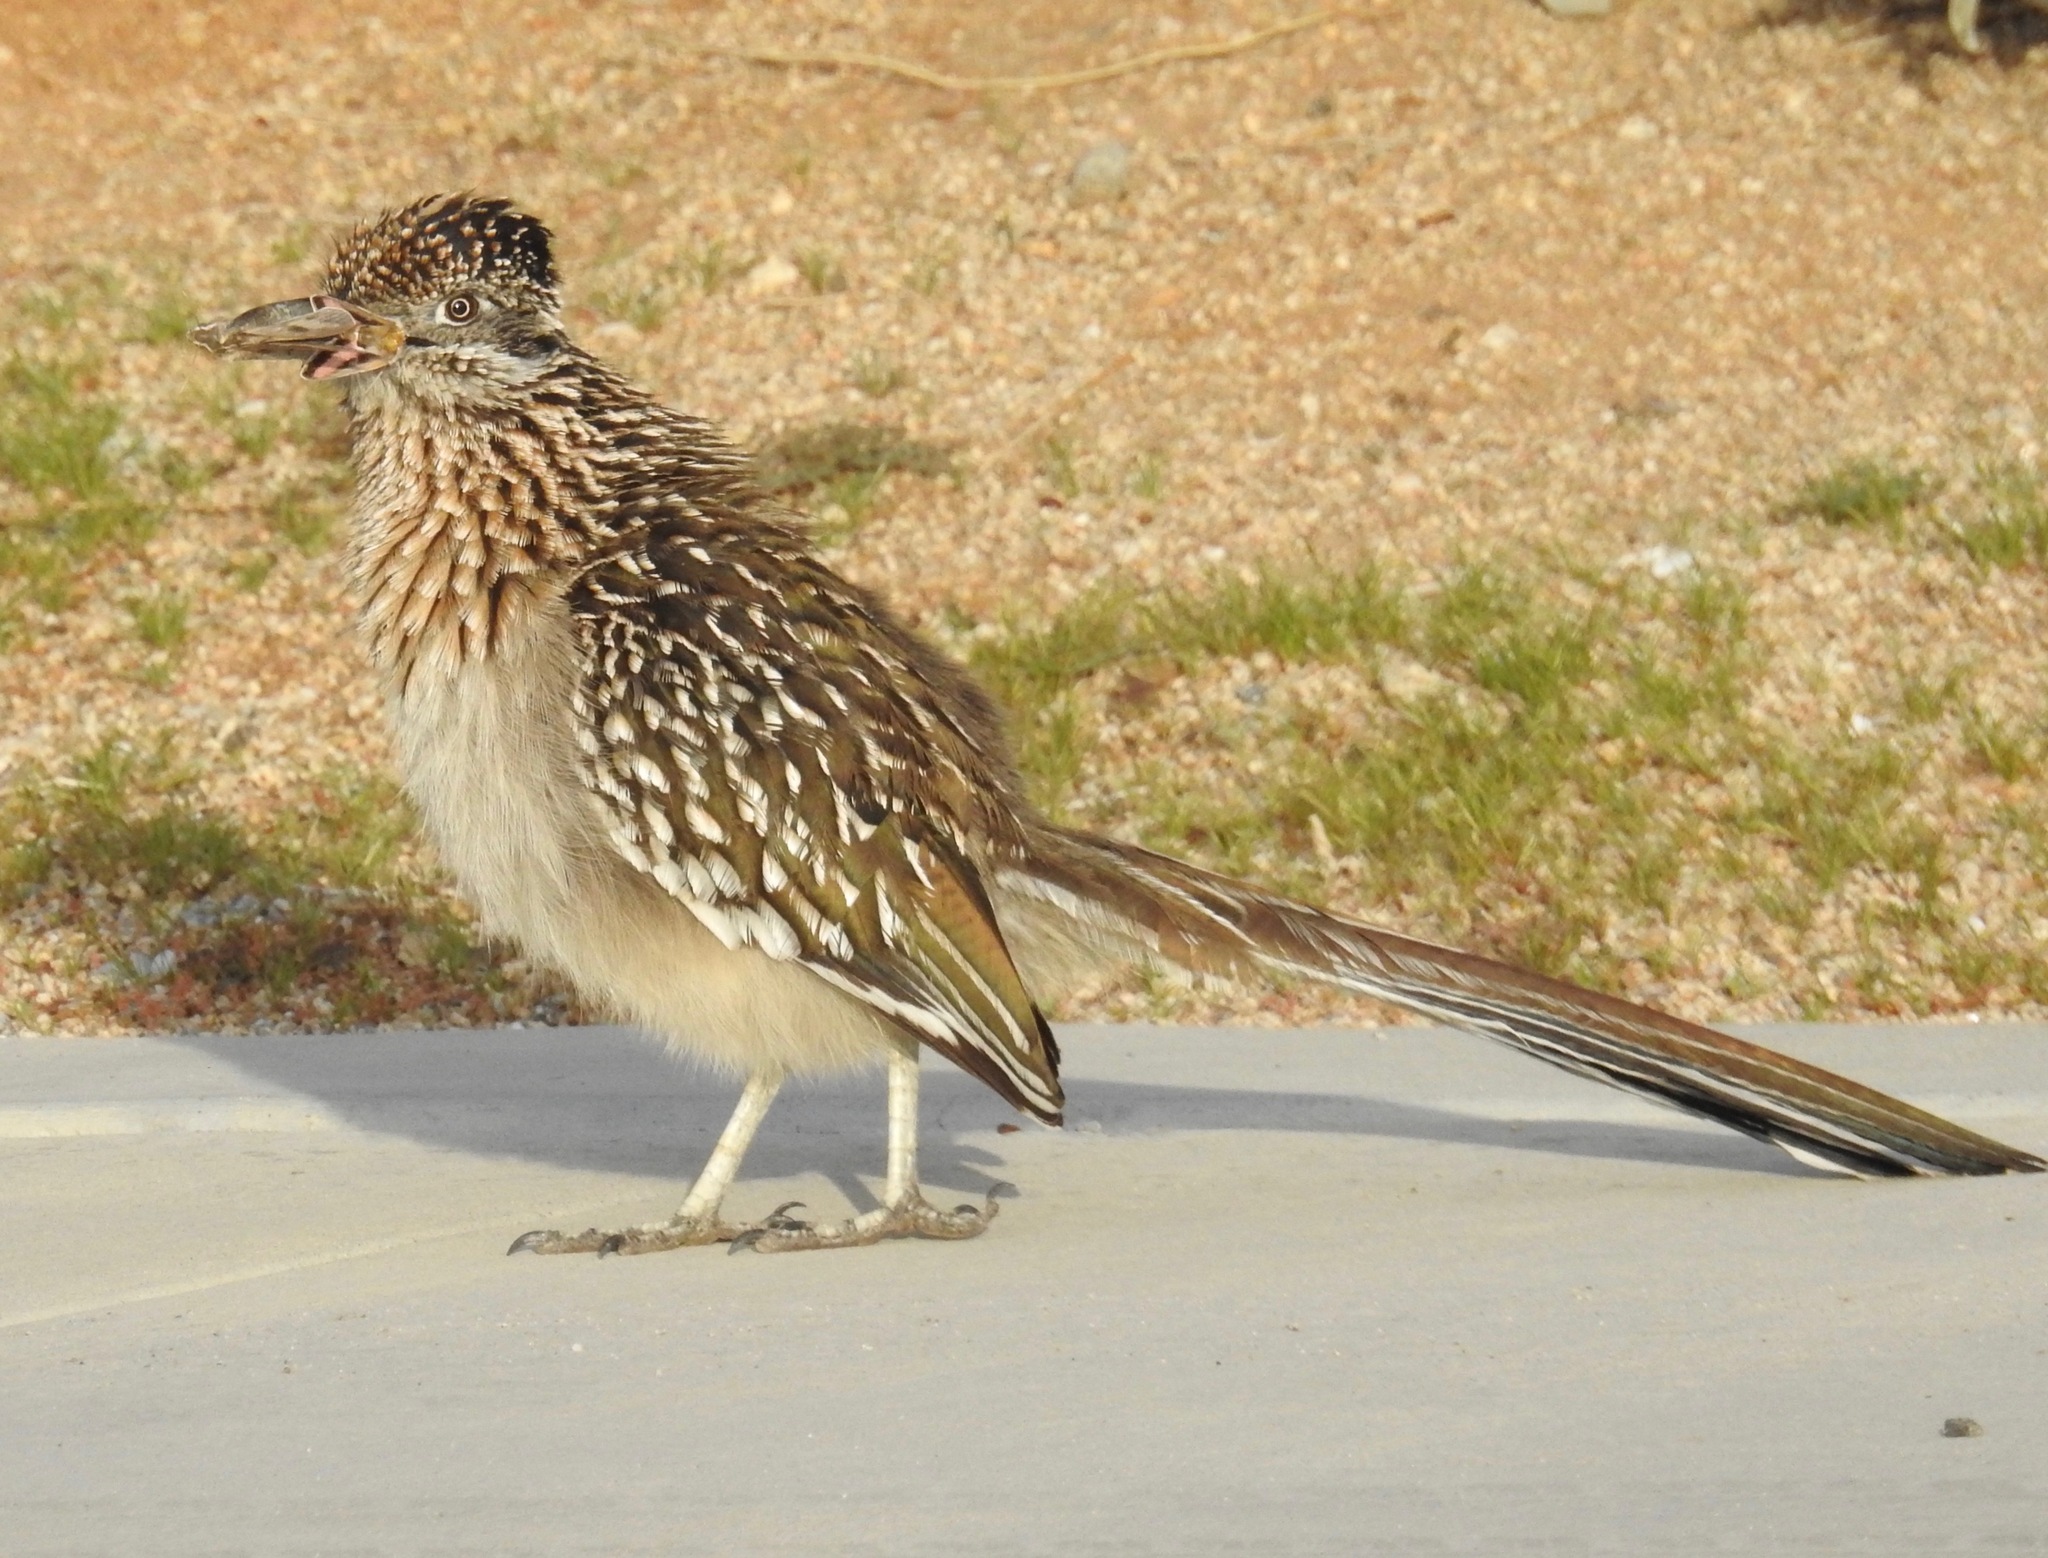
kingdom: Animalia
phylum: Chordata
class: Aves
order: Cuculiformes
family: Cuculidae
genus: Geococcyx
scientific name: Geococcyx californianus
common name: Greater roadrunner
